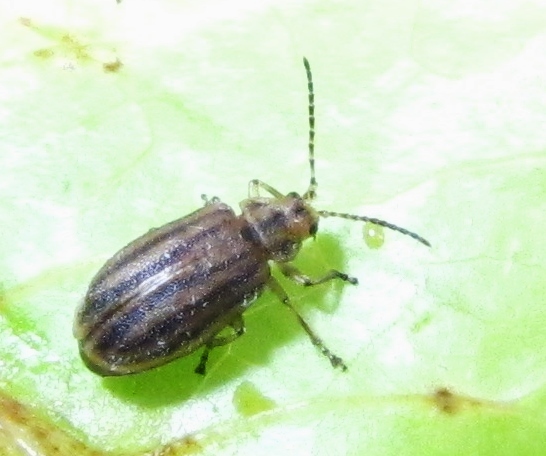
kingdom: Animalia
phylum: Arthropoda
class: Insecta
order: Coleoptera
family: Chrysomelidae
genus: Ophraella
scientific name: Ophraella conferta
